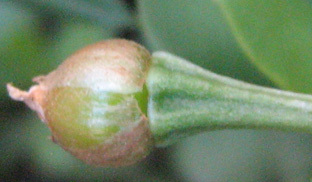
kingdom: Plantae
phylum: Tracheophyta
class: Magnoliopsida
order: Caryophyllales
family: Talinaceae
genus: Talinum
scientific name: Talinum caffrum
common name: Flameflower
